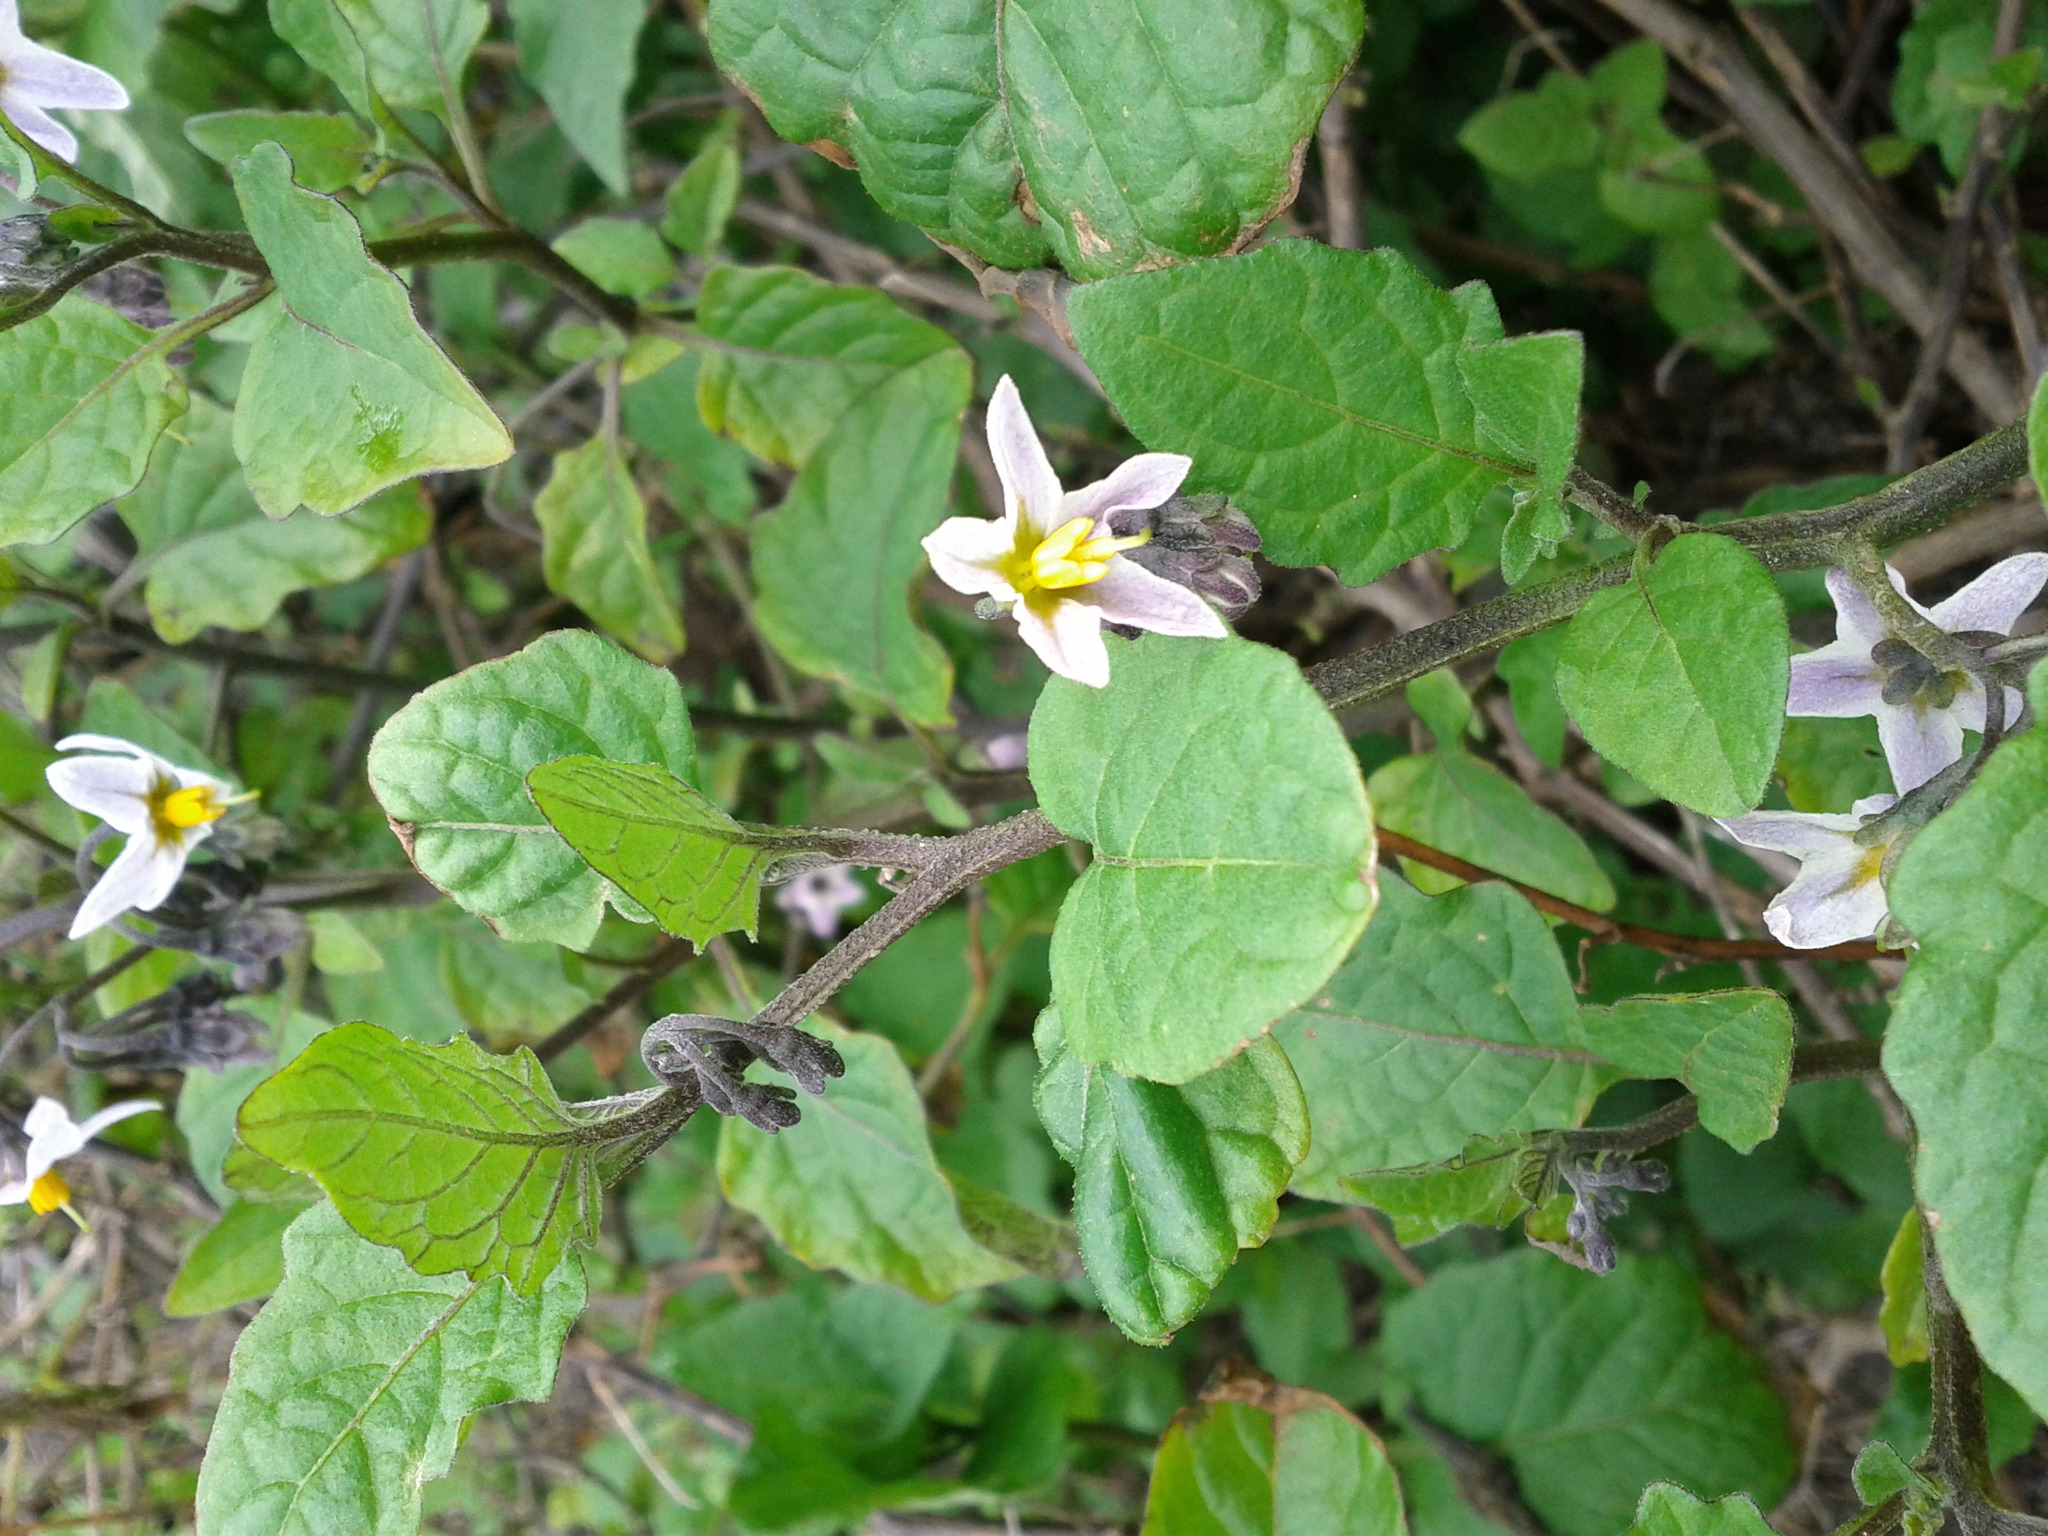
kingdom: Plantae
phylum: Tracheophyta
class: Magnoliopsida
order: Solanales
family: Solanaceae
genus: Solanum
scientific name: Solanum furcatum
